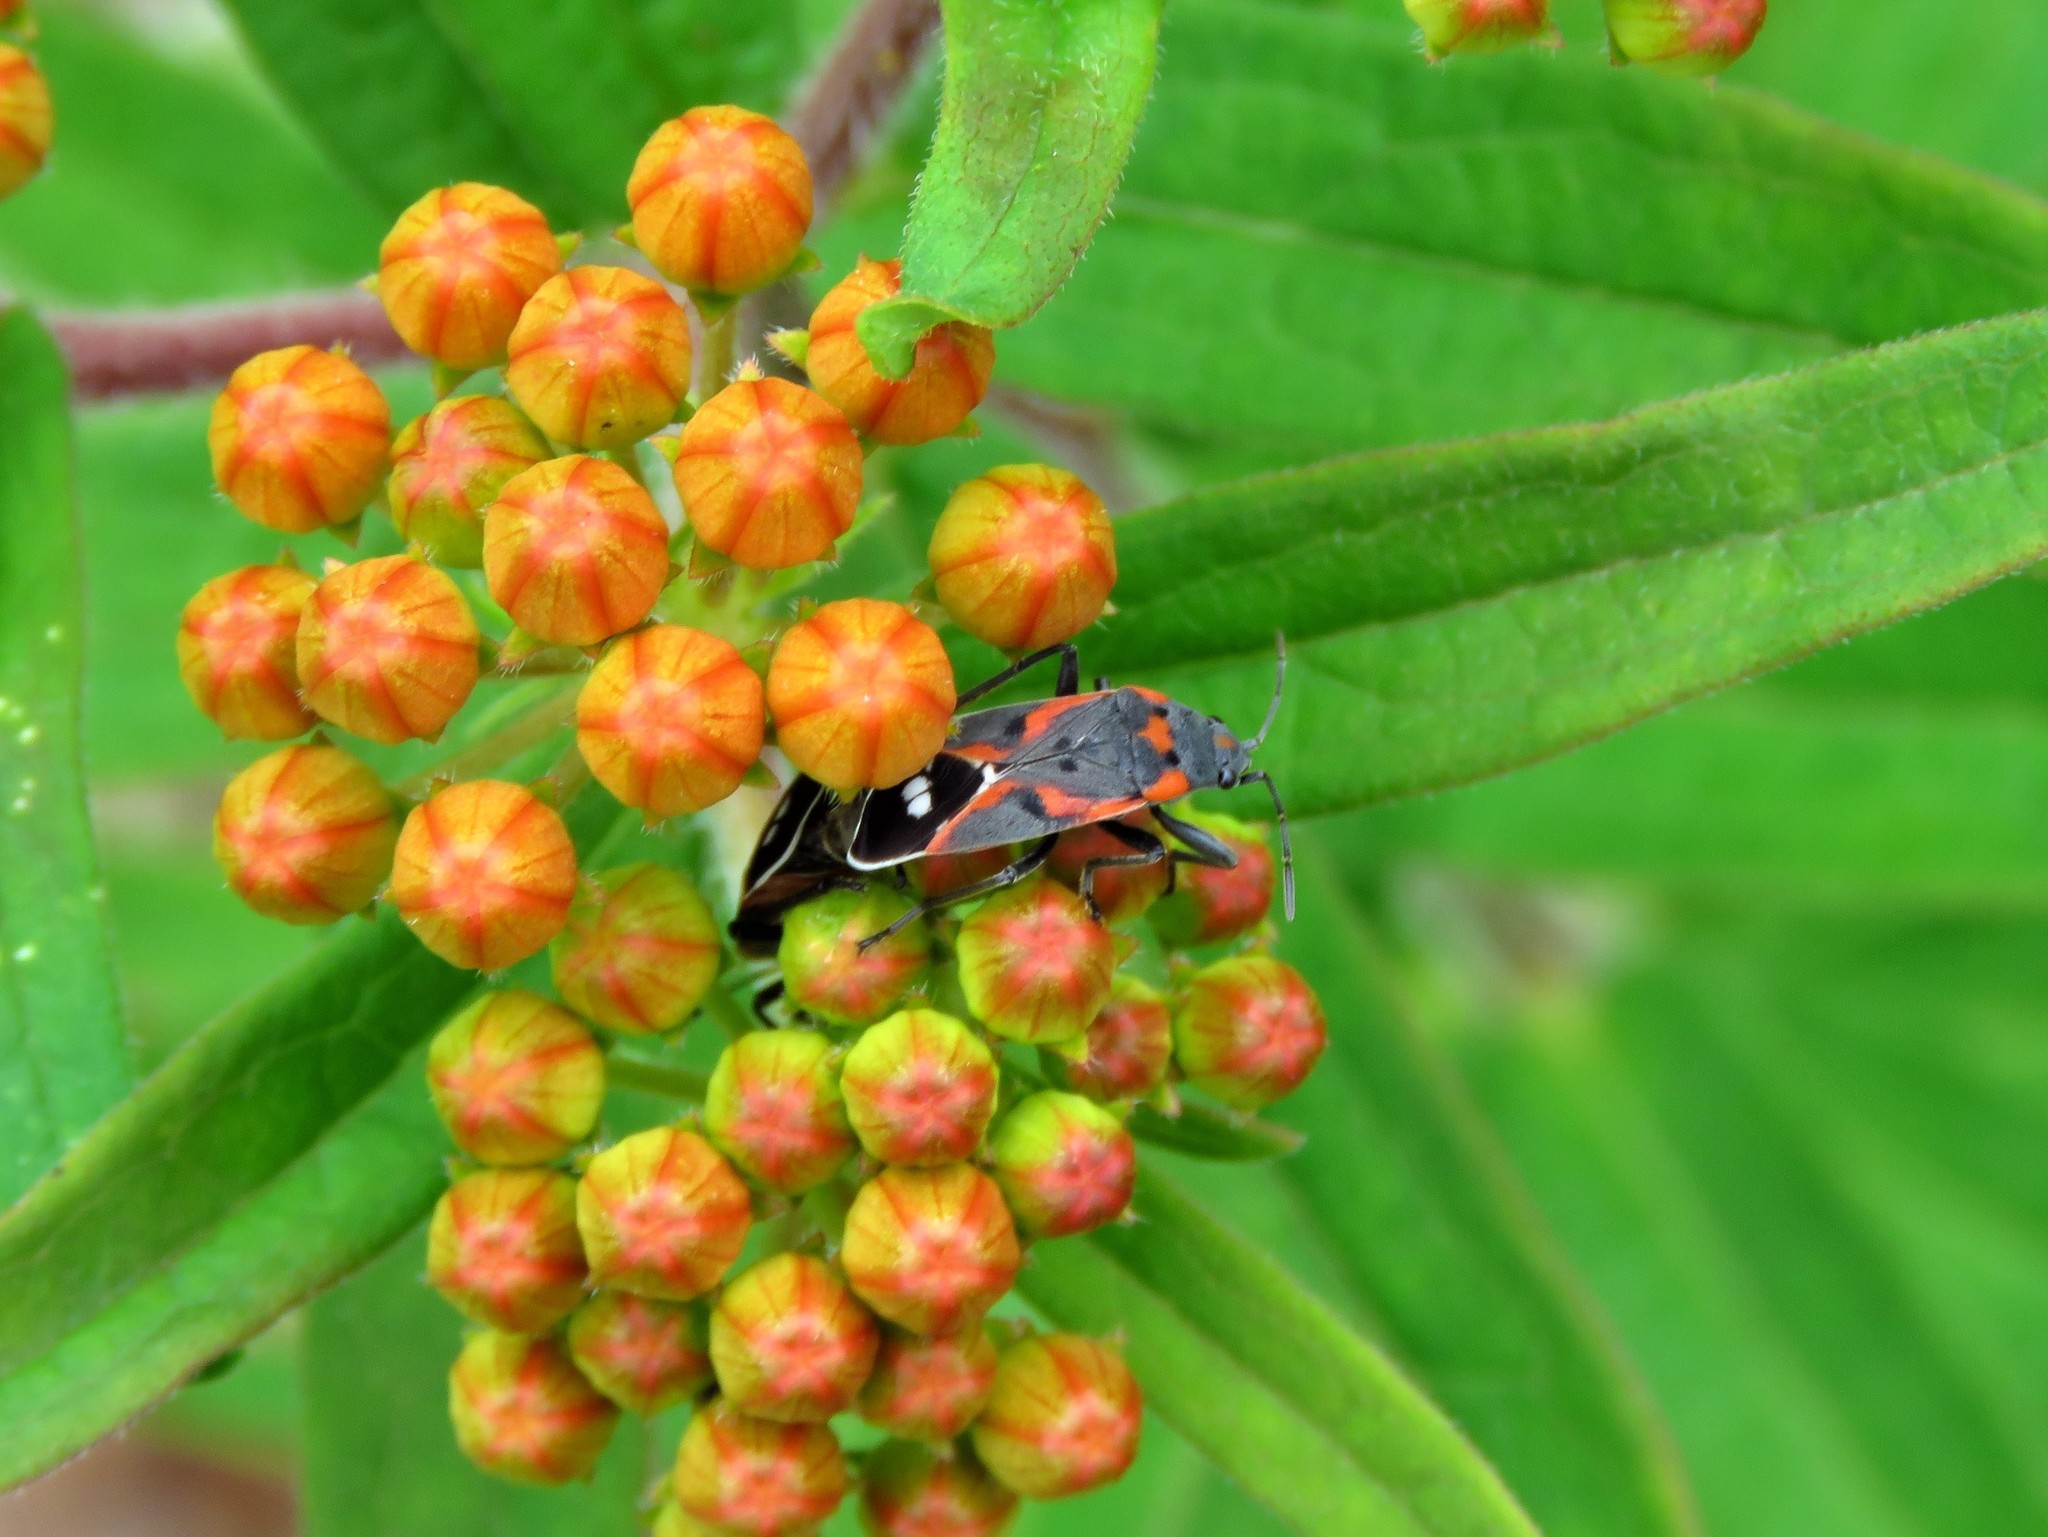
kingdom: Animalia
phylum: Arthropoda
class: Insecta
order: Hemiptera
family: Lygaeidae
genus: Lygaeus
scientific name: Lygaeus kalmii
